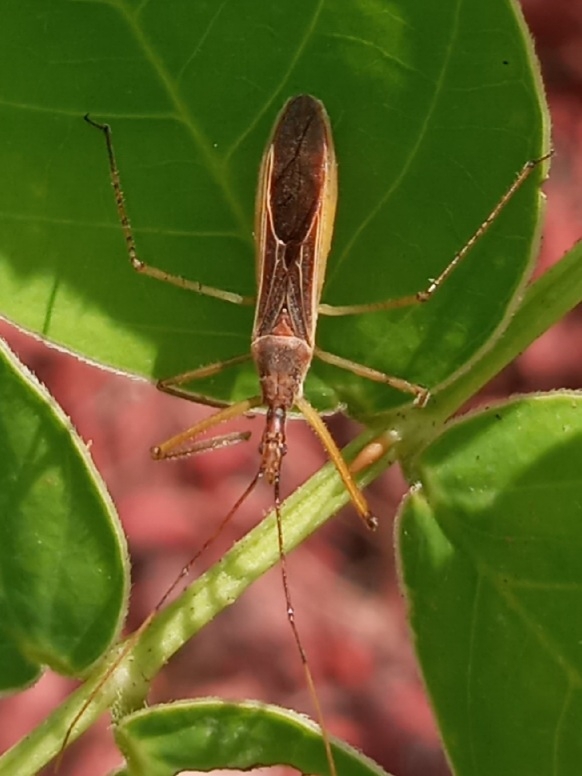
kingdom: Animalia
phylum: Arthropoda
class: Insecta
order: Hemiptera
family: Reduviidae
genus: Zelus
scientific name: Zelus cervicalis
